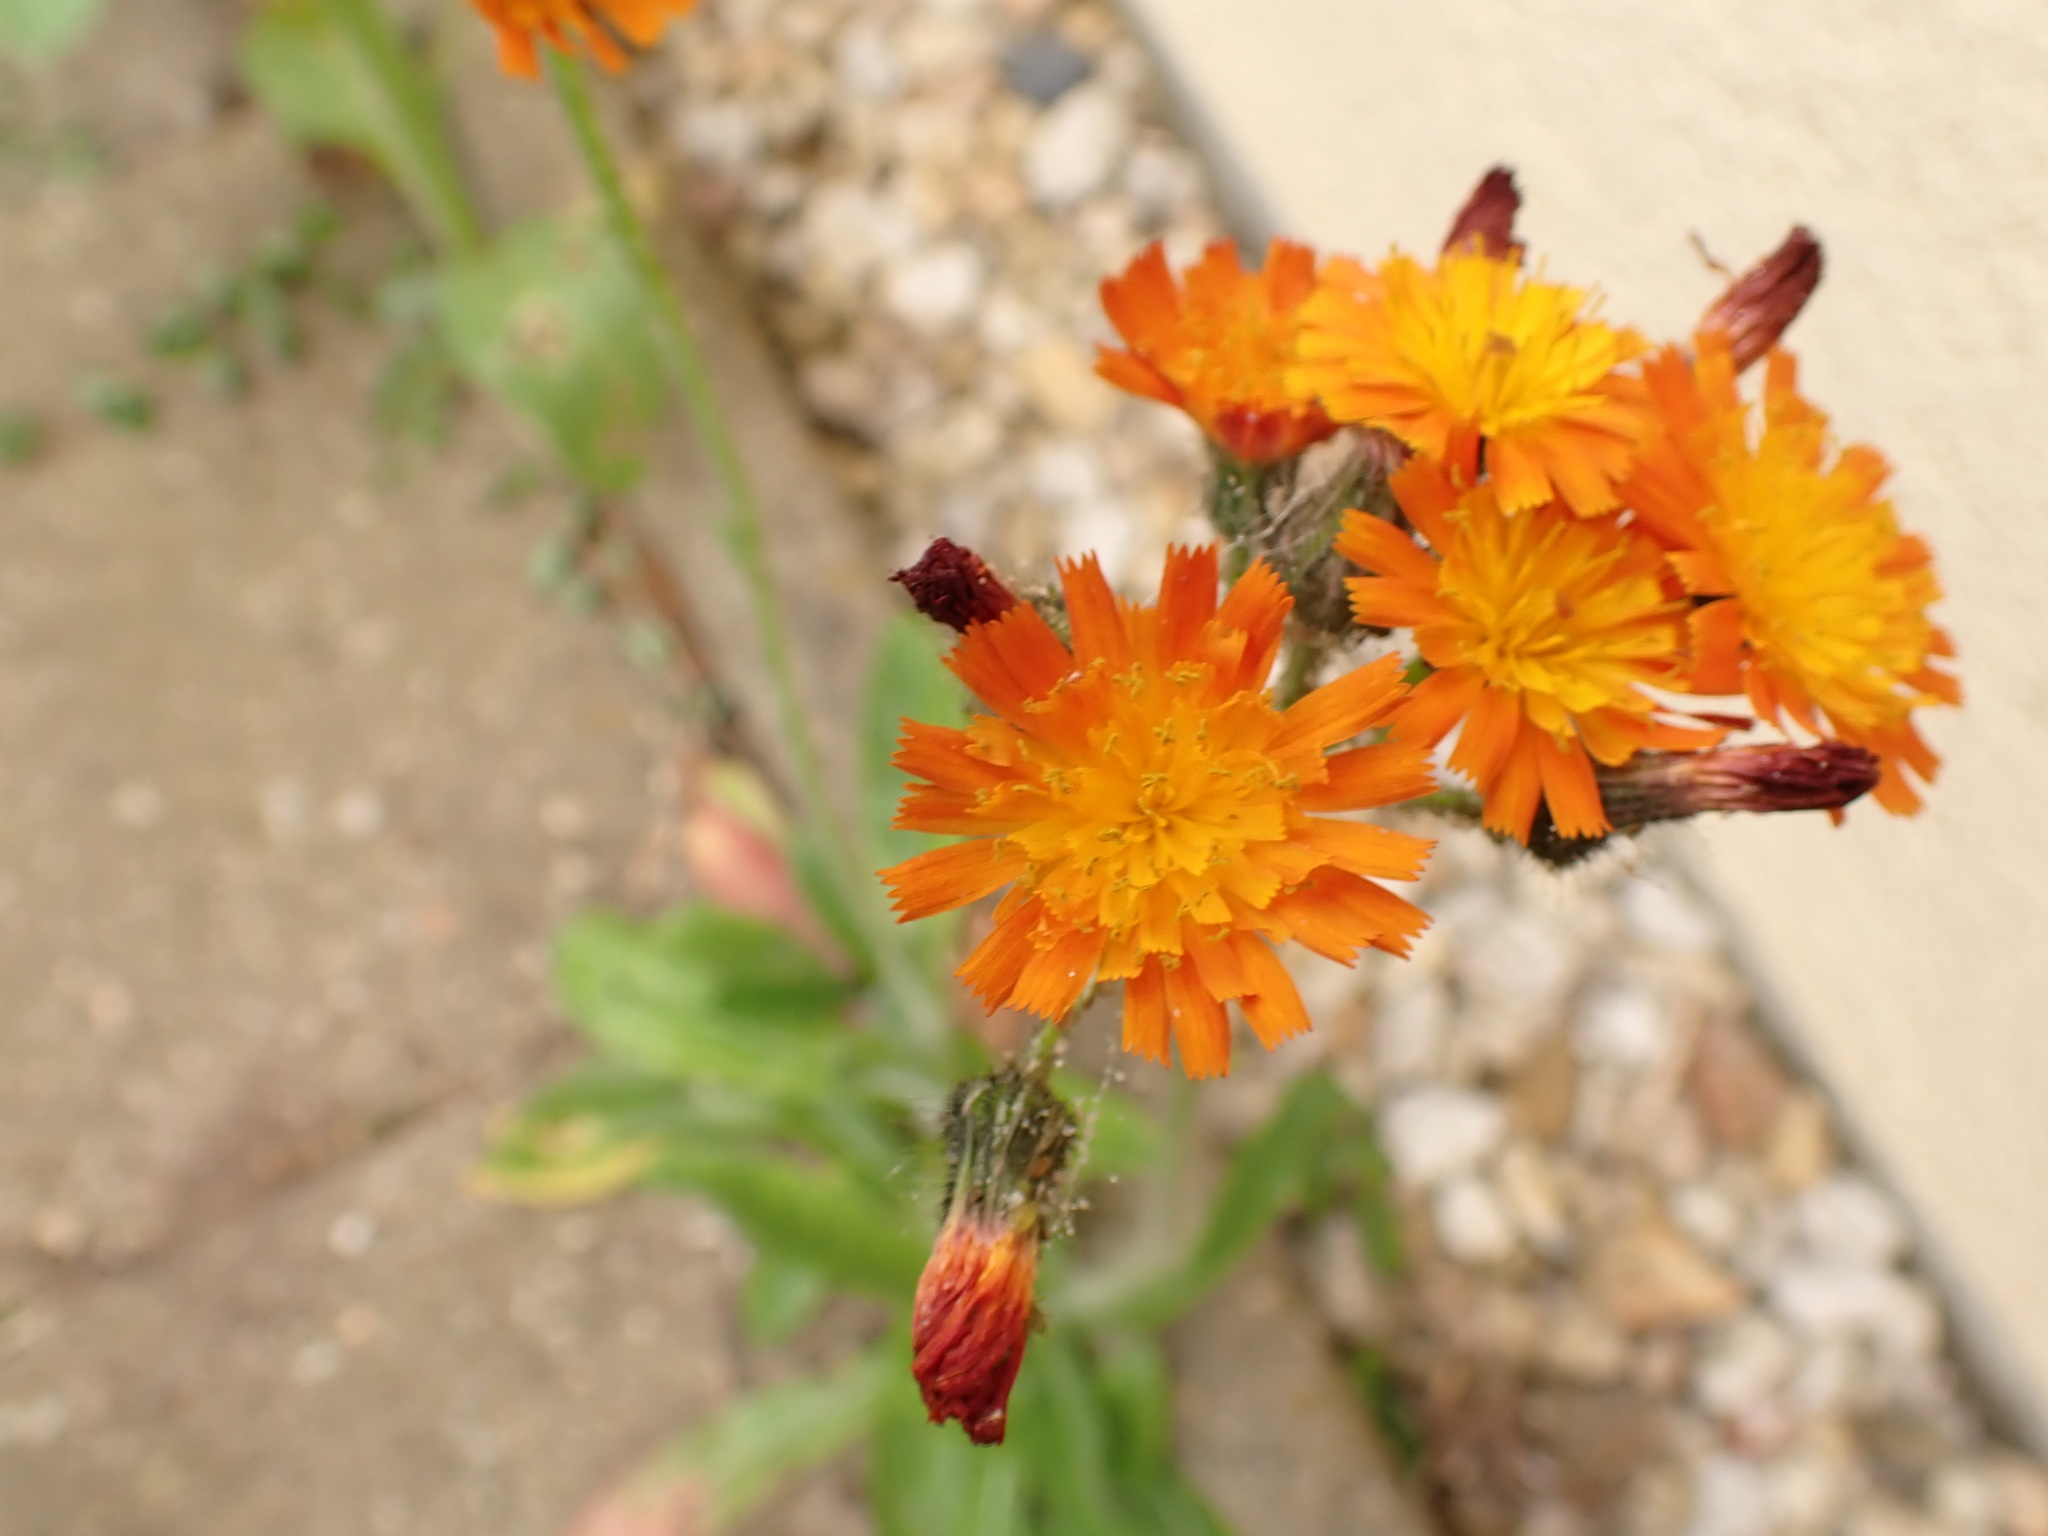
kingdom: Plantae
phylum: Tracheophyta
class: Magnoliopsida
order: Asterales
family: Asteraceae
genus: Pilosella
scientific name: Pilosella aurantiaca
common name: Fox-and-cubs
